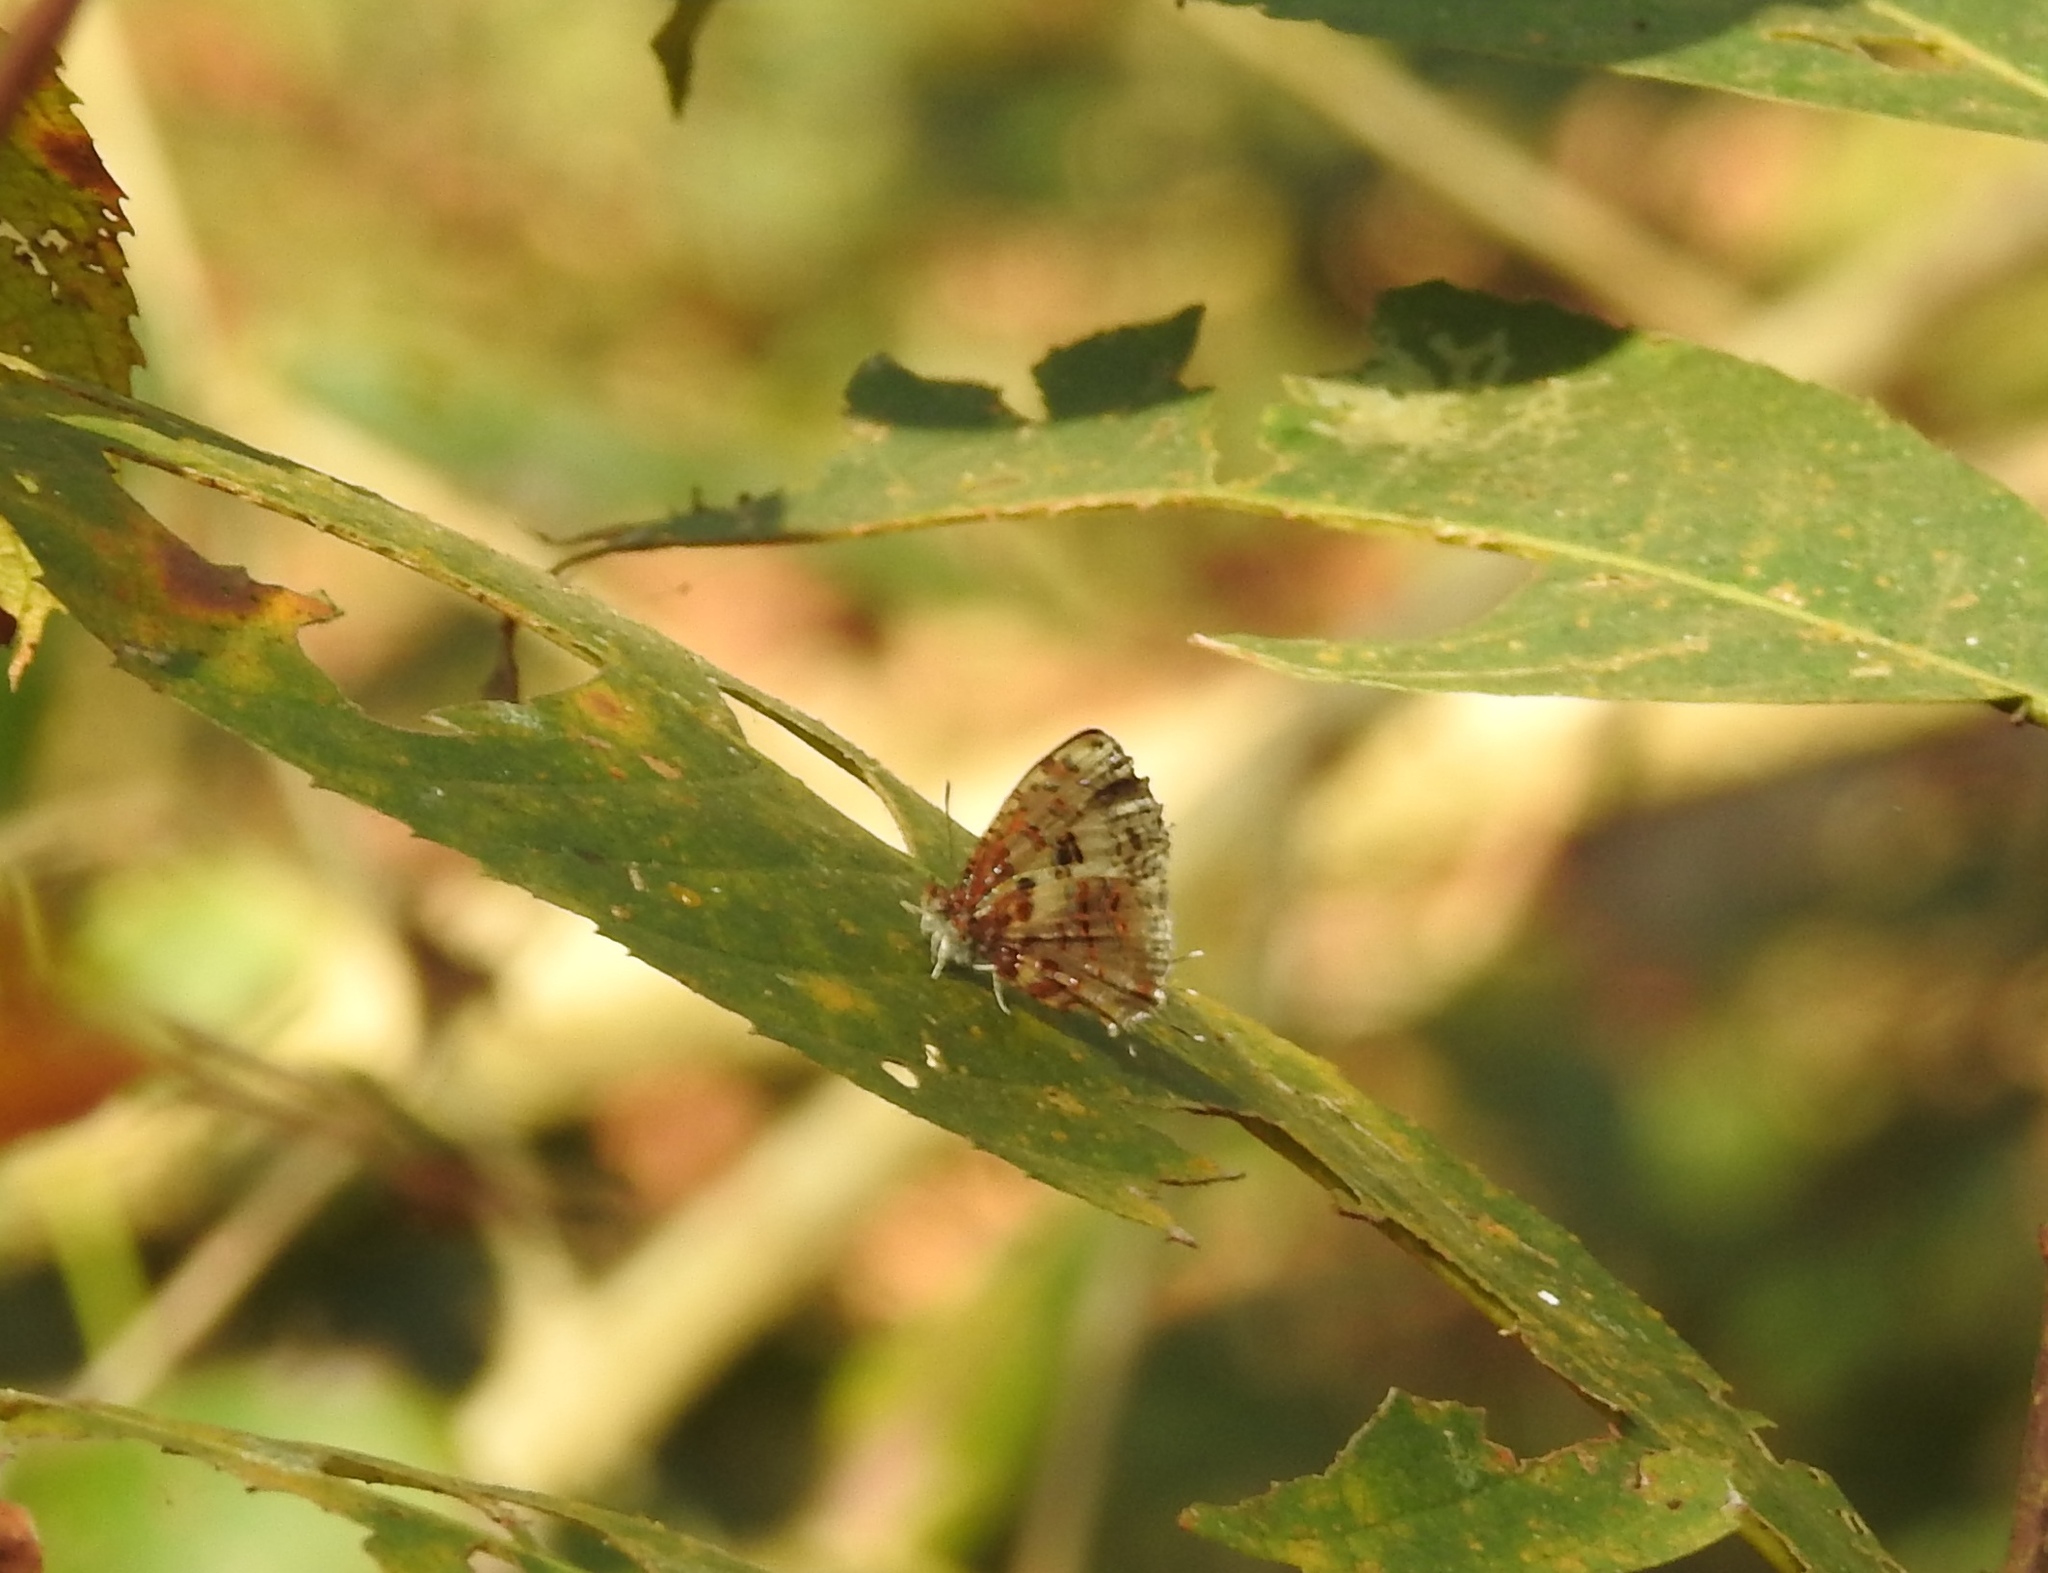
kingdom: Animalia
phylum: Arthropoda
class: Insecta
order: Lepidoptera
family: Lycaenidae
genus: Catapaecilma
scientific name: Catapaecilma major
